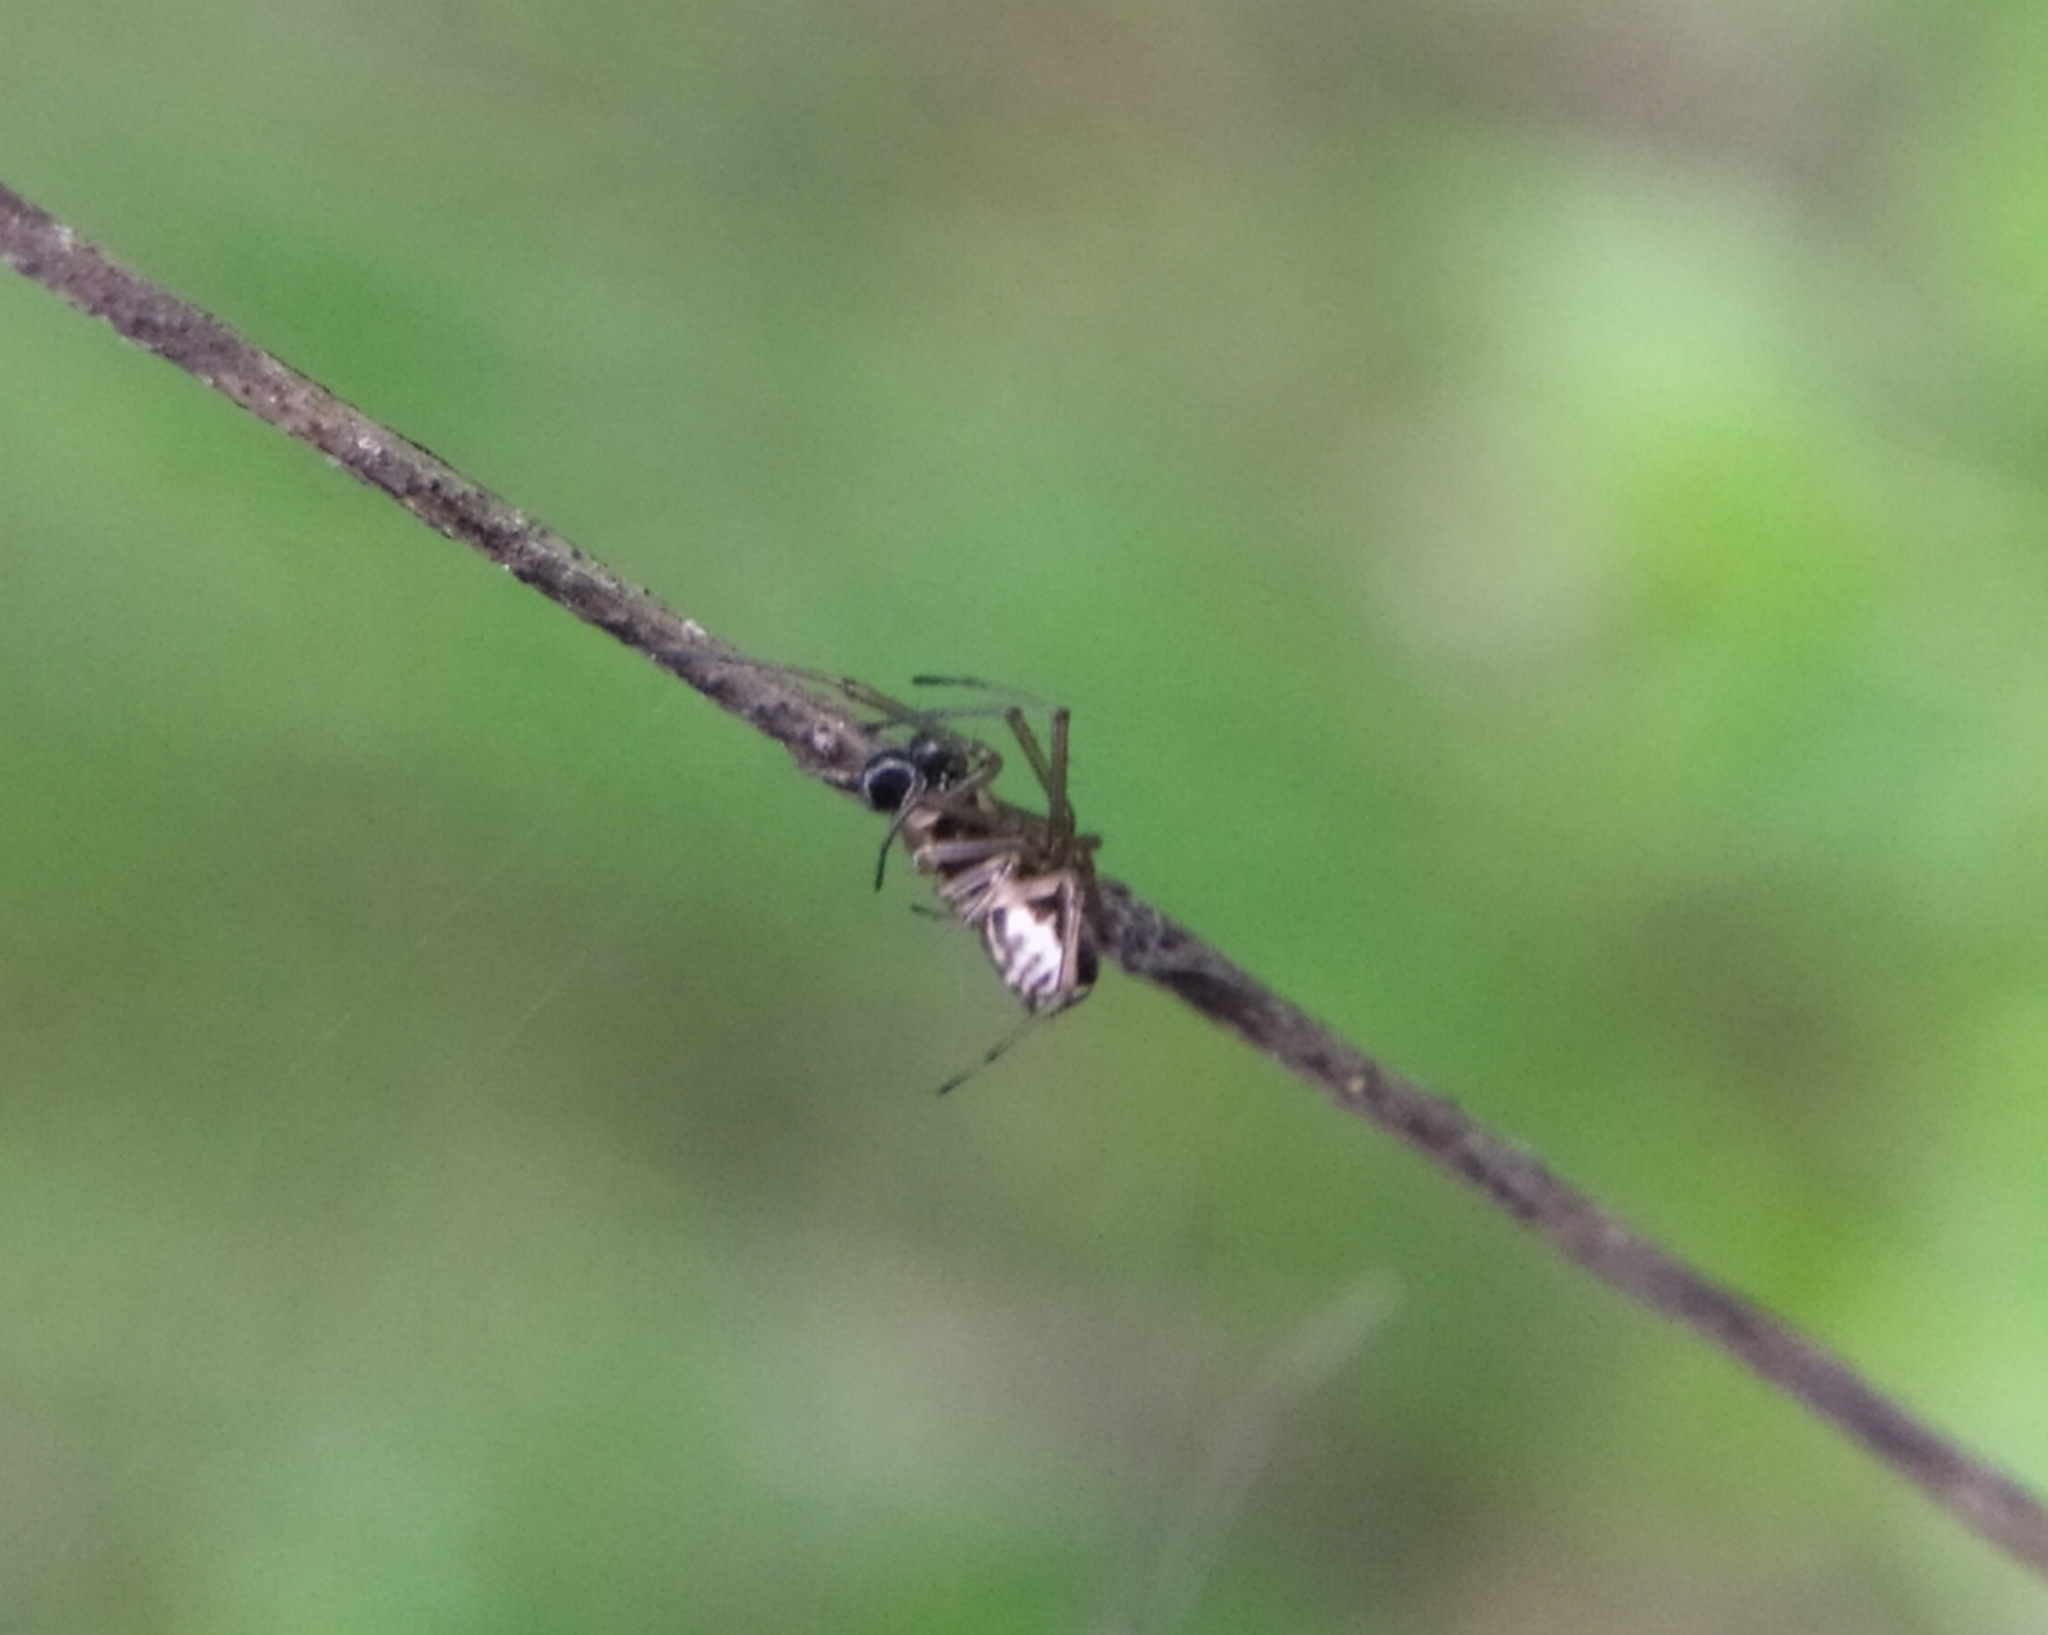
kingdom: Animalia
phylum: Arthropoda
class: Arachnida
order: Araneae
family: Linyphiidae
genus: Frontinellina
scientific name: Frontinellina frutetorum
